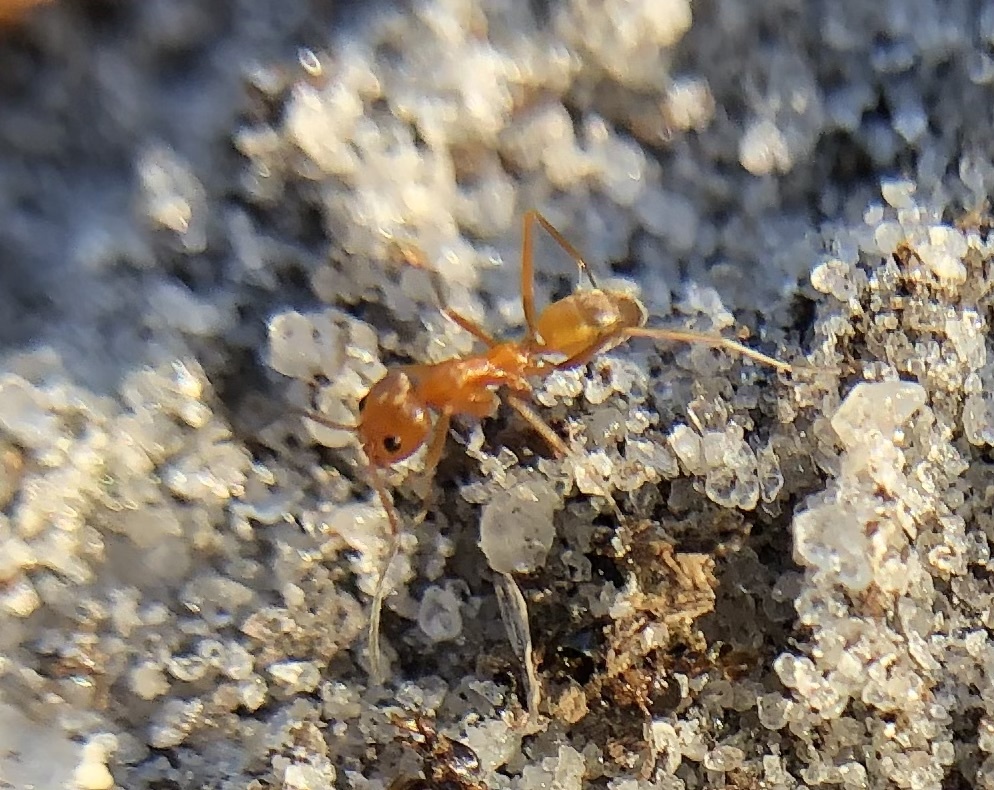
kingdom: Animalia
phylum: Arthropoda
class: Insecta
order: Hymenoptera
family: Formicidae
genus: Dorymyrmex
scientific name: Dorymyrmex bureni
